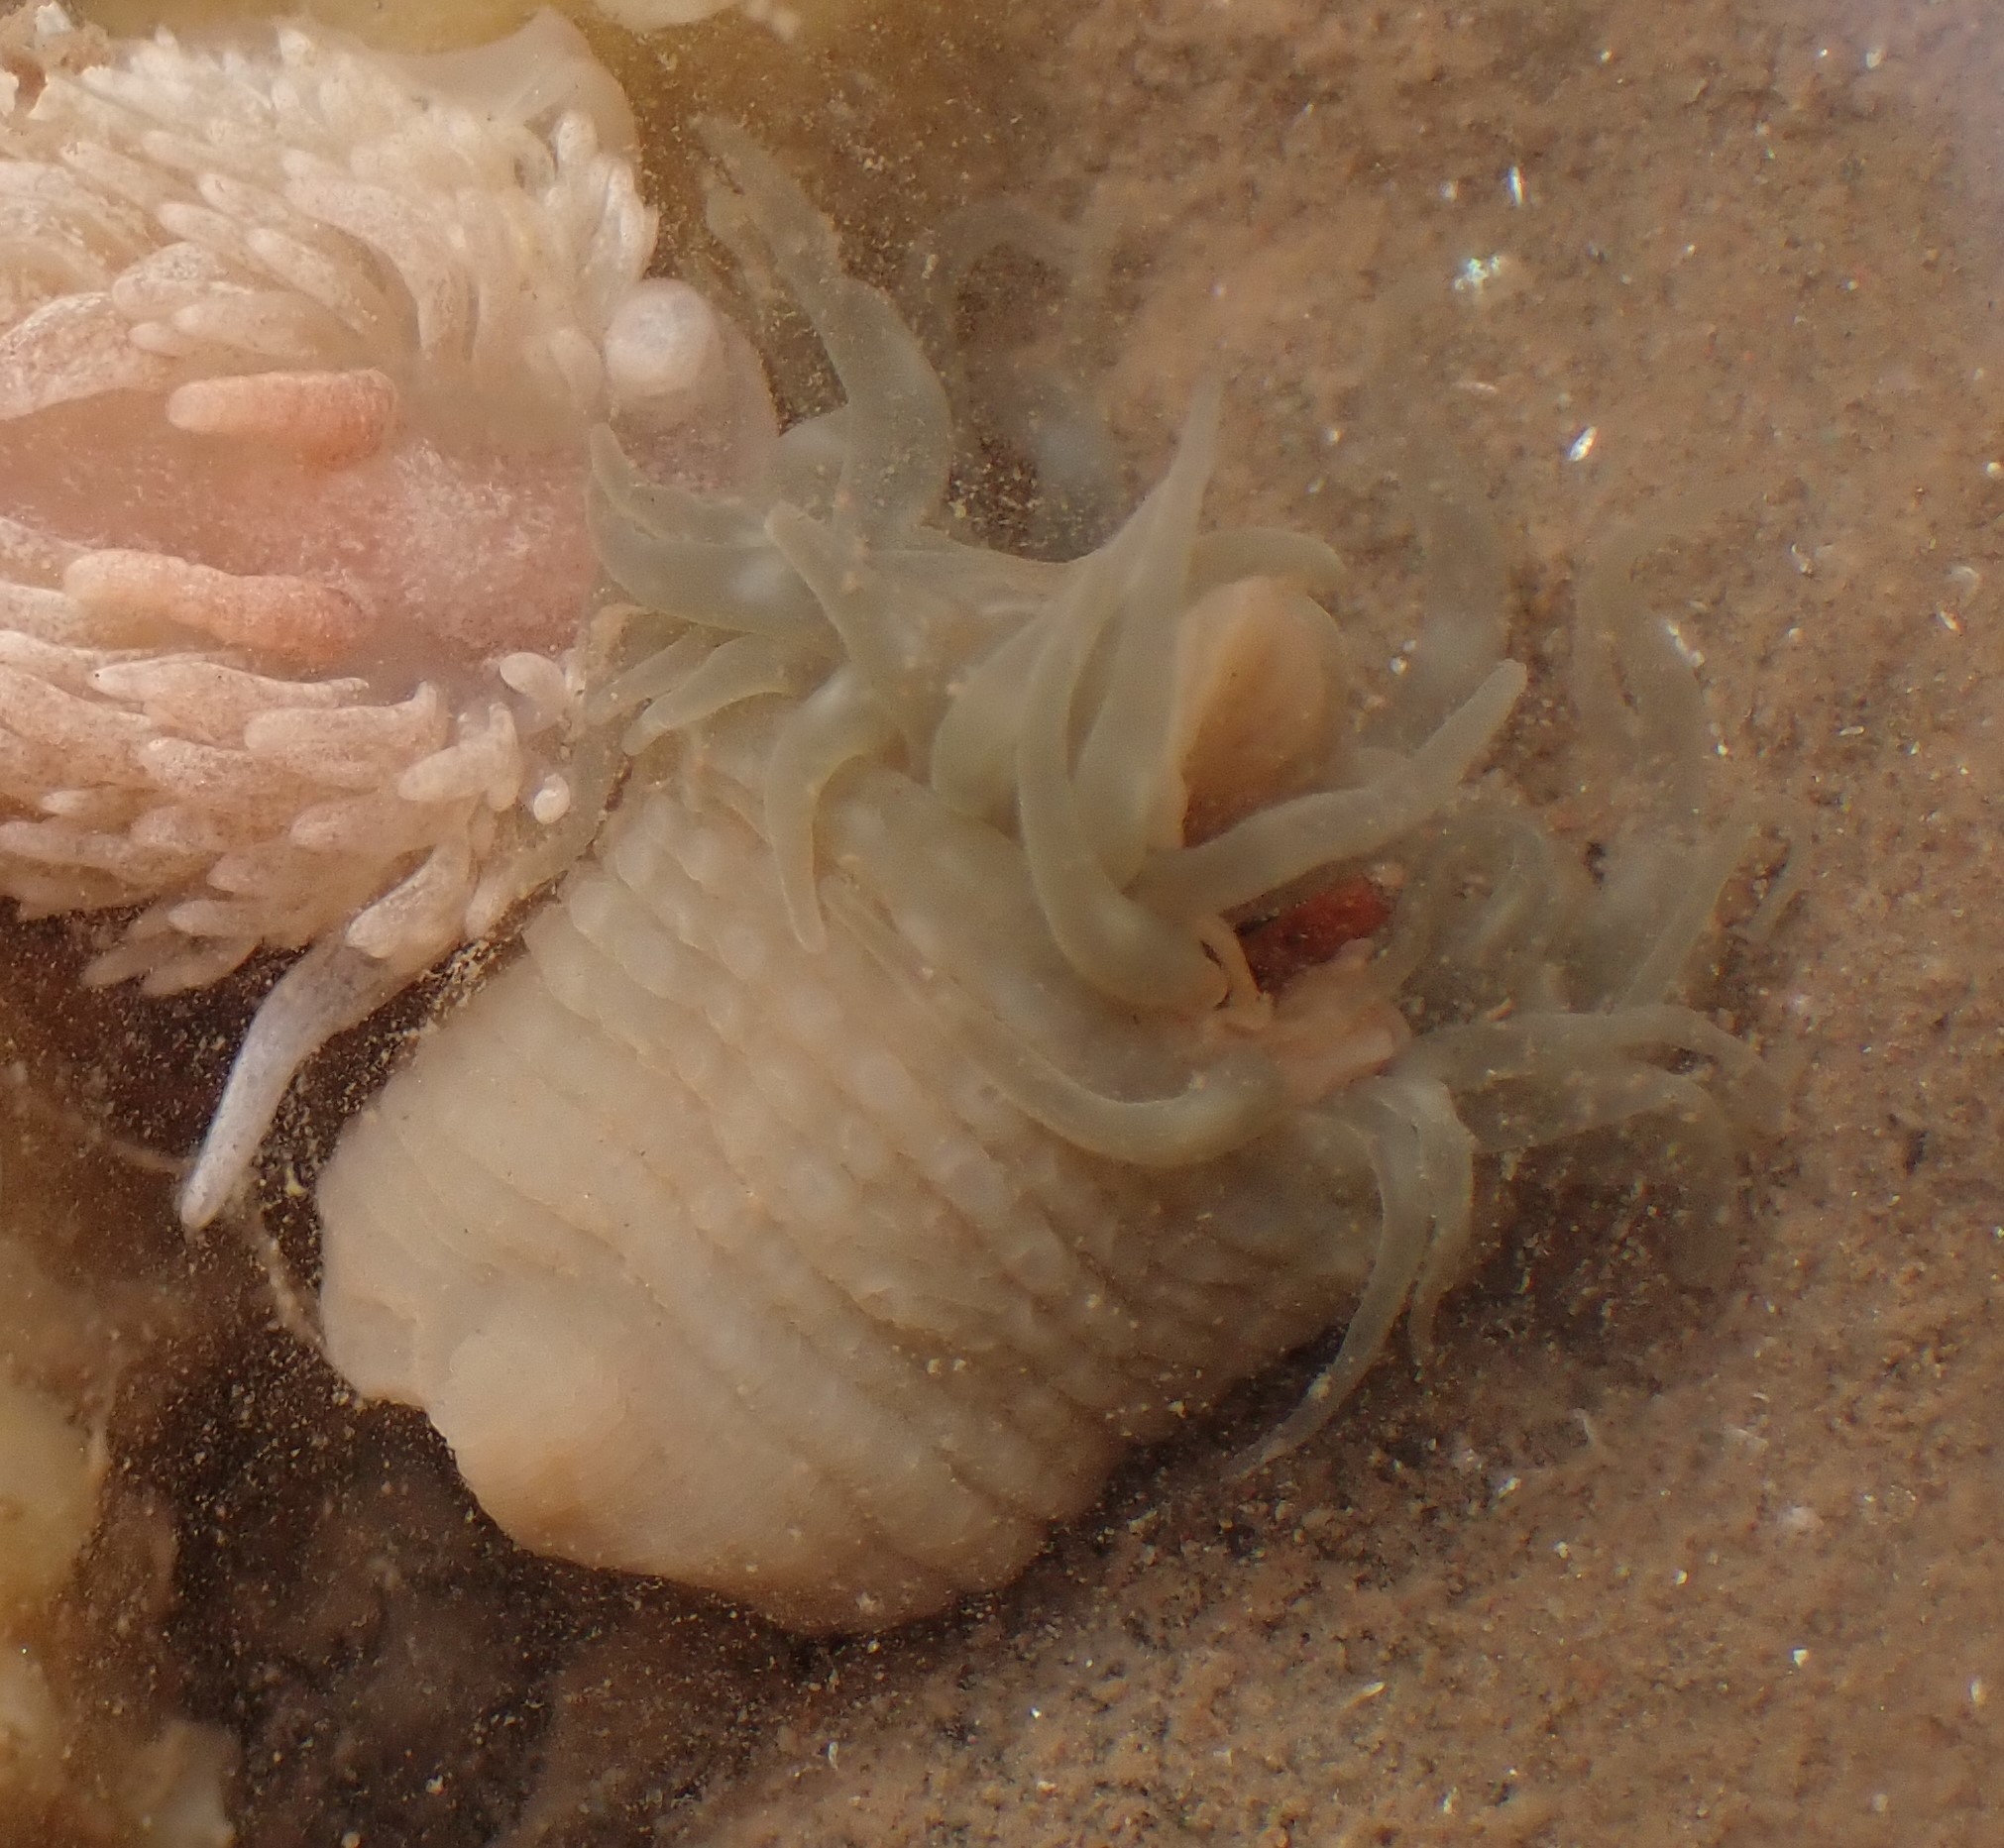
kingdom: Animalia
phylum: Cnidaria
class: Anthozoa
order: Actiniaria
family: Actiniidae
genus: Aulactinia
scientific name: Aulactinia stella
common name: Silver-spotted sea anemone
